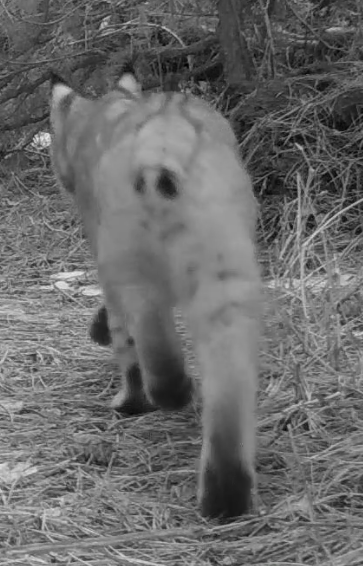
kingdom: Animalia
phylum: Chordata
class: Mammalia
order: Carnivora
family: Felidae
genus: Lynx
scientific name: Lynx rufus
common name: Bobcat
